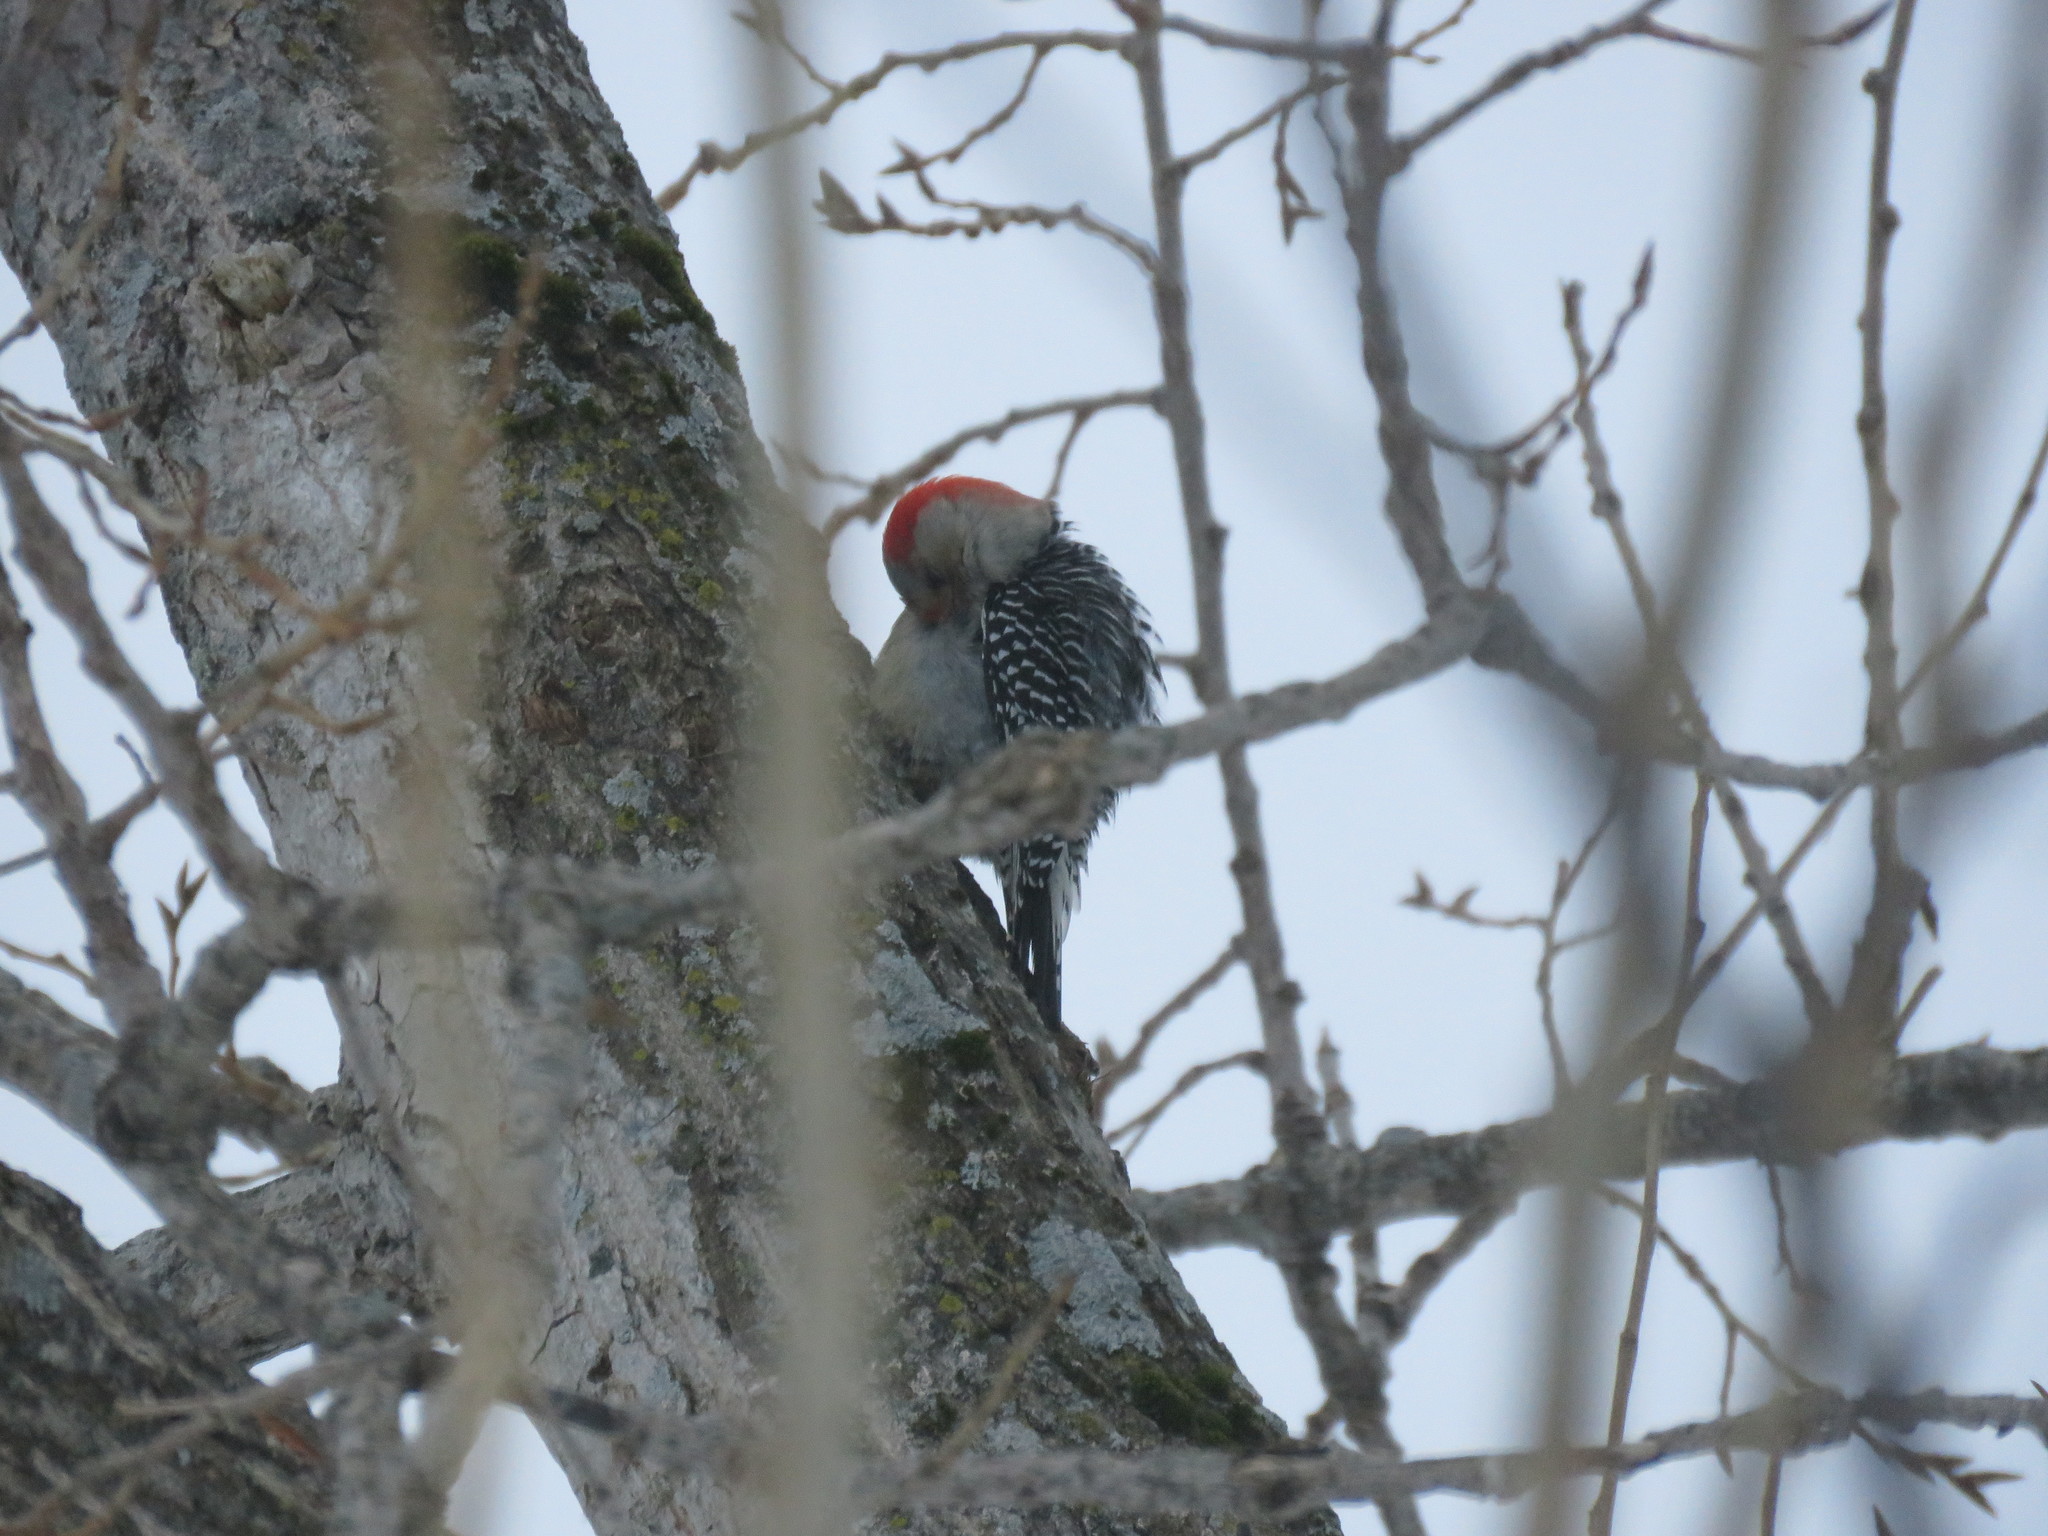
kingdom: Animalia
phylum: Chordata
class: Aves
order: Piciformes
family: Picidae
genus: Melanerpes
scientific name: Melanerpes carolinus
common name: Red-bellied woodpecker
